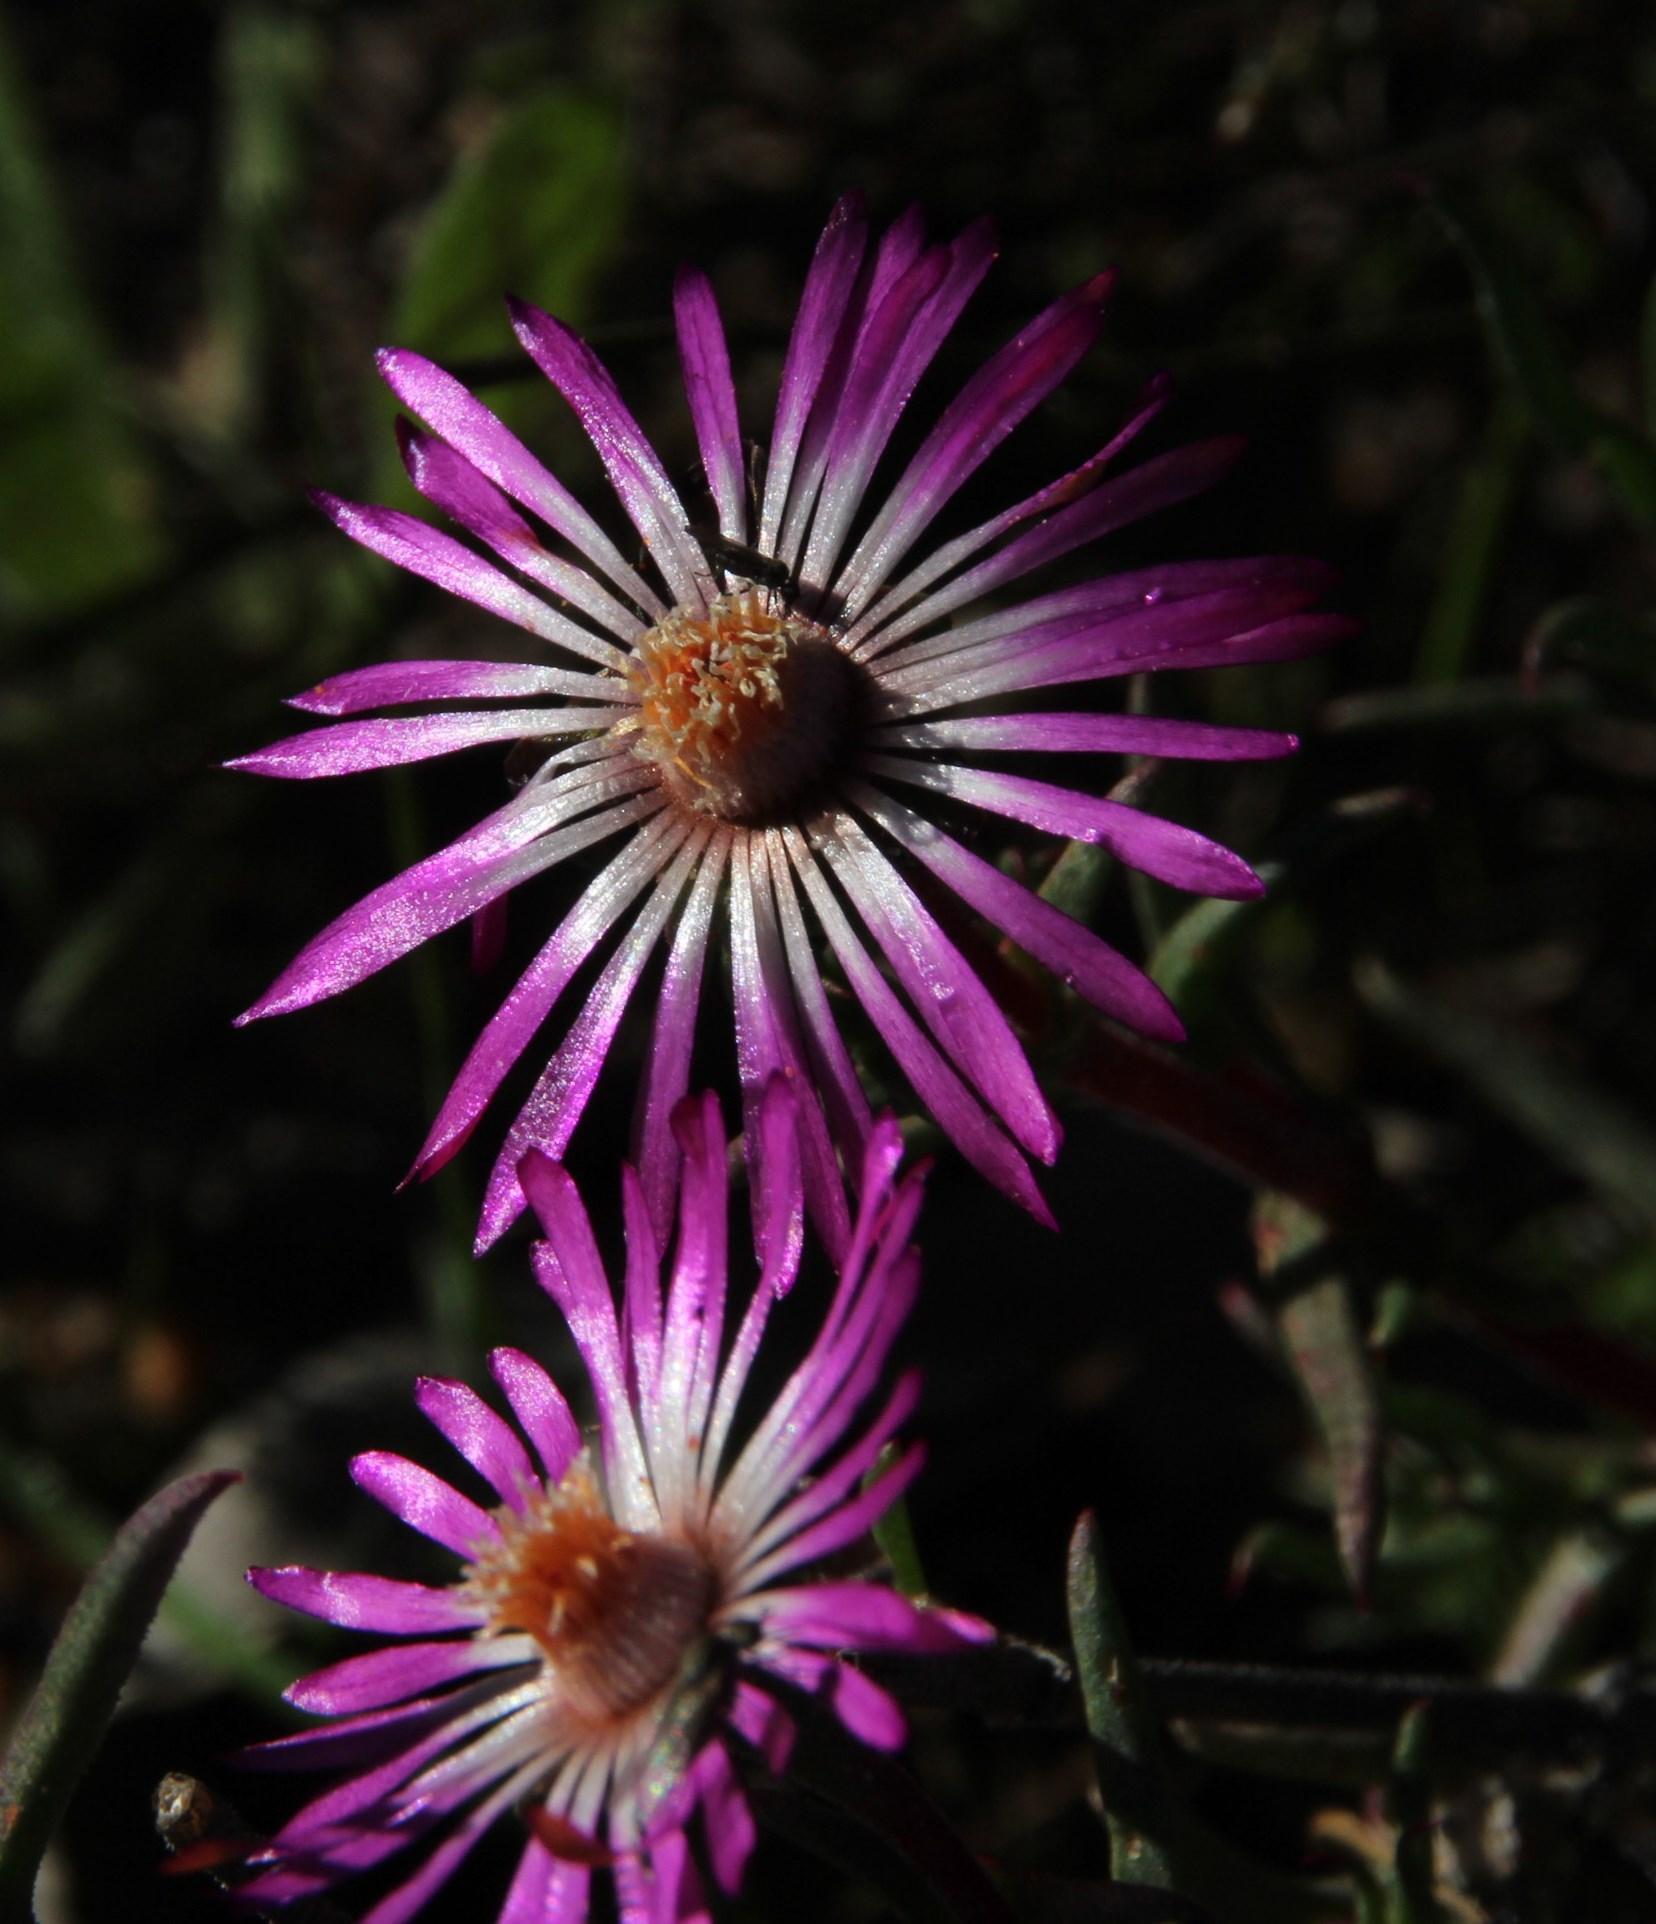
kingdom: Plantae
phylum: Tracheophyta
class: Magnoliopsida
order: Caryophyllales
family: Aizoaceae
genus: Lampranthus
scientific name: Lampranthus spiniformis
